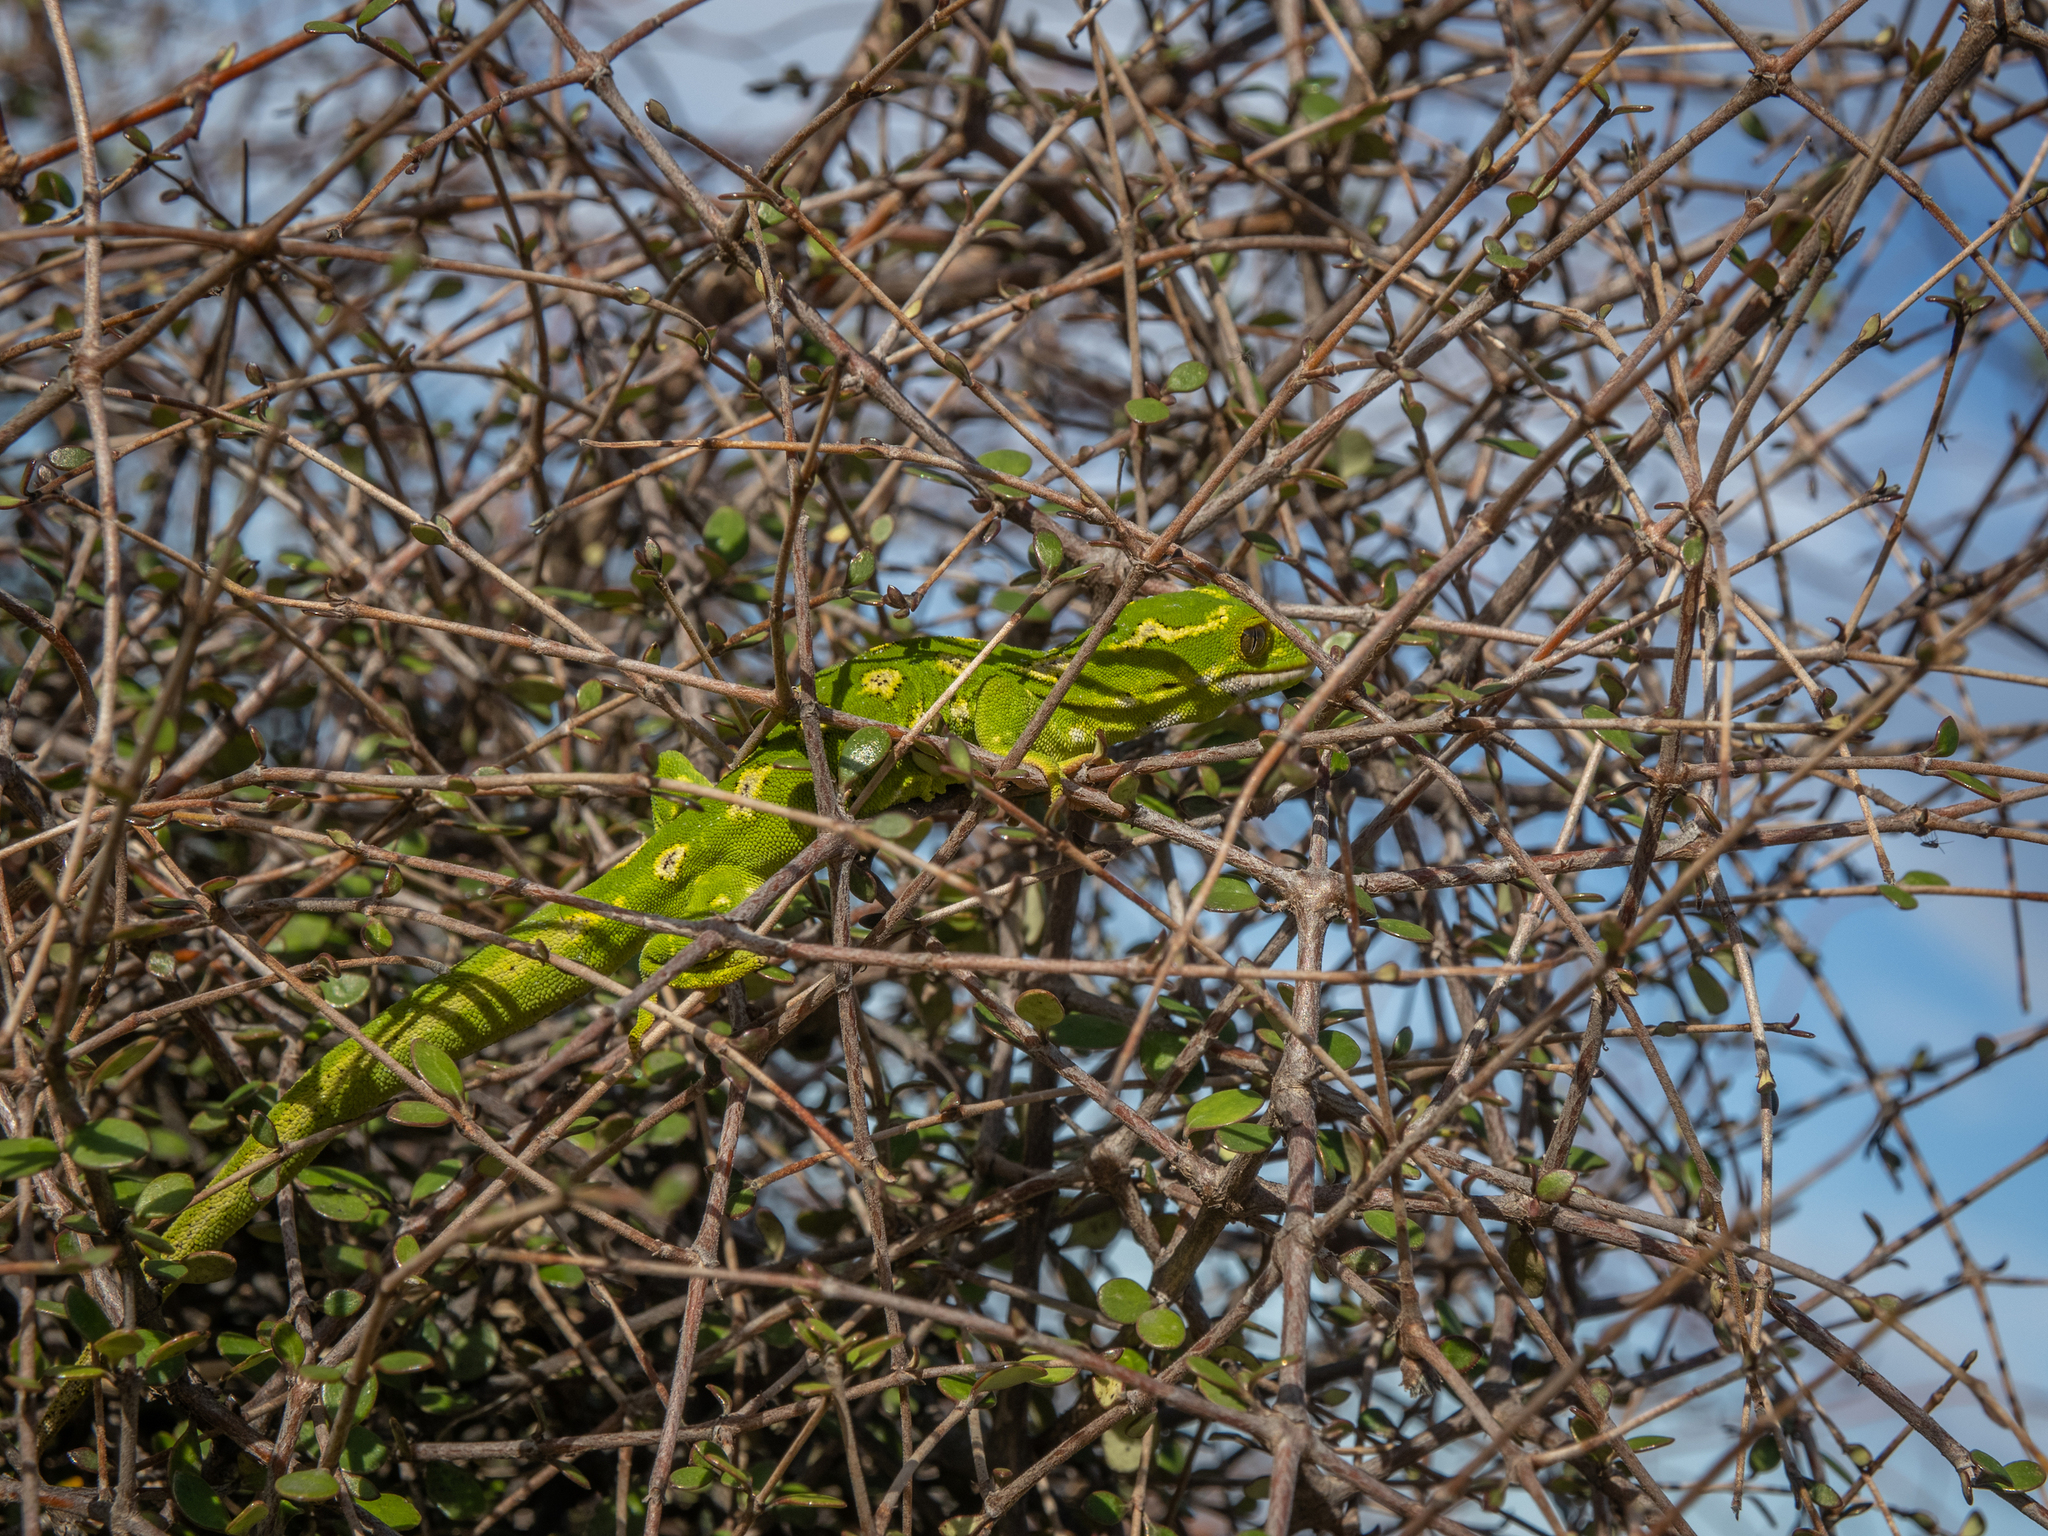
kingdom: Animalia
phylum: Chordata
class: Squamata
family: Diplodactylidae
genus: Naultinus
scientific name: Naultinus gemmeus
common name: Jewelled gecko
